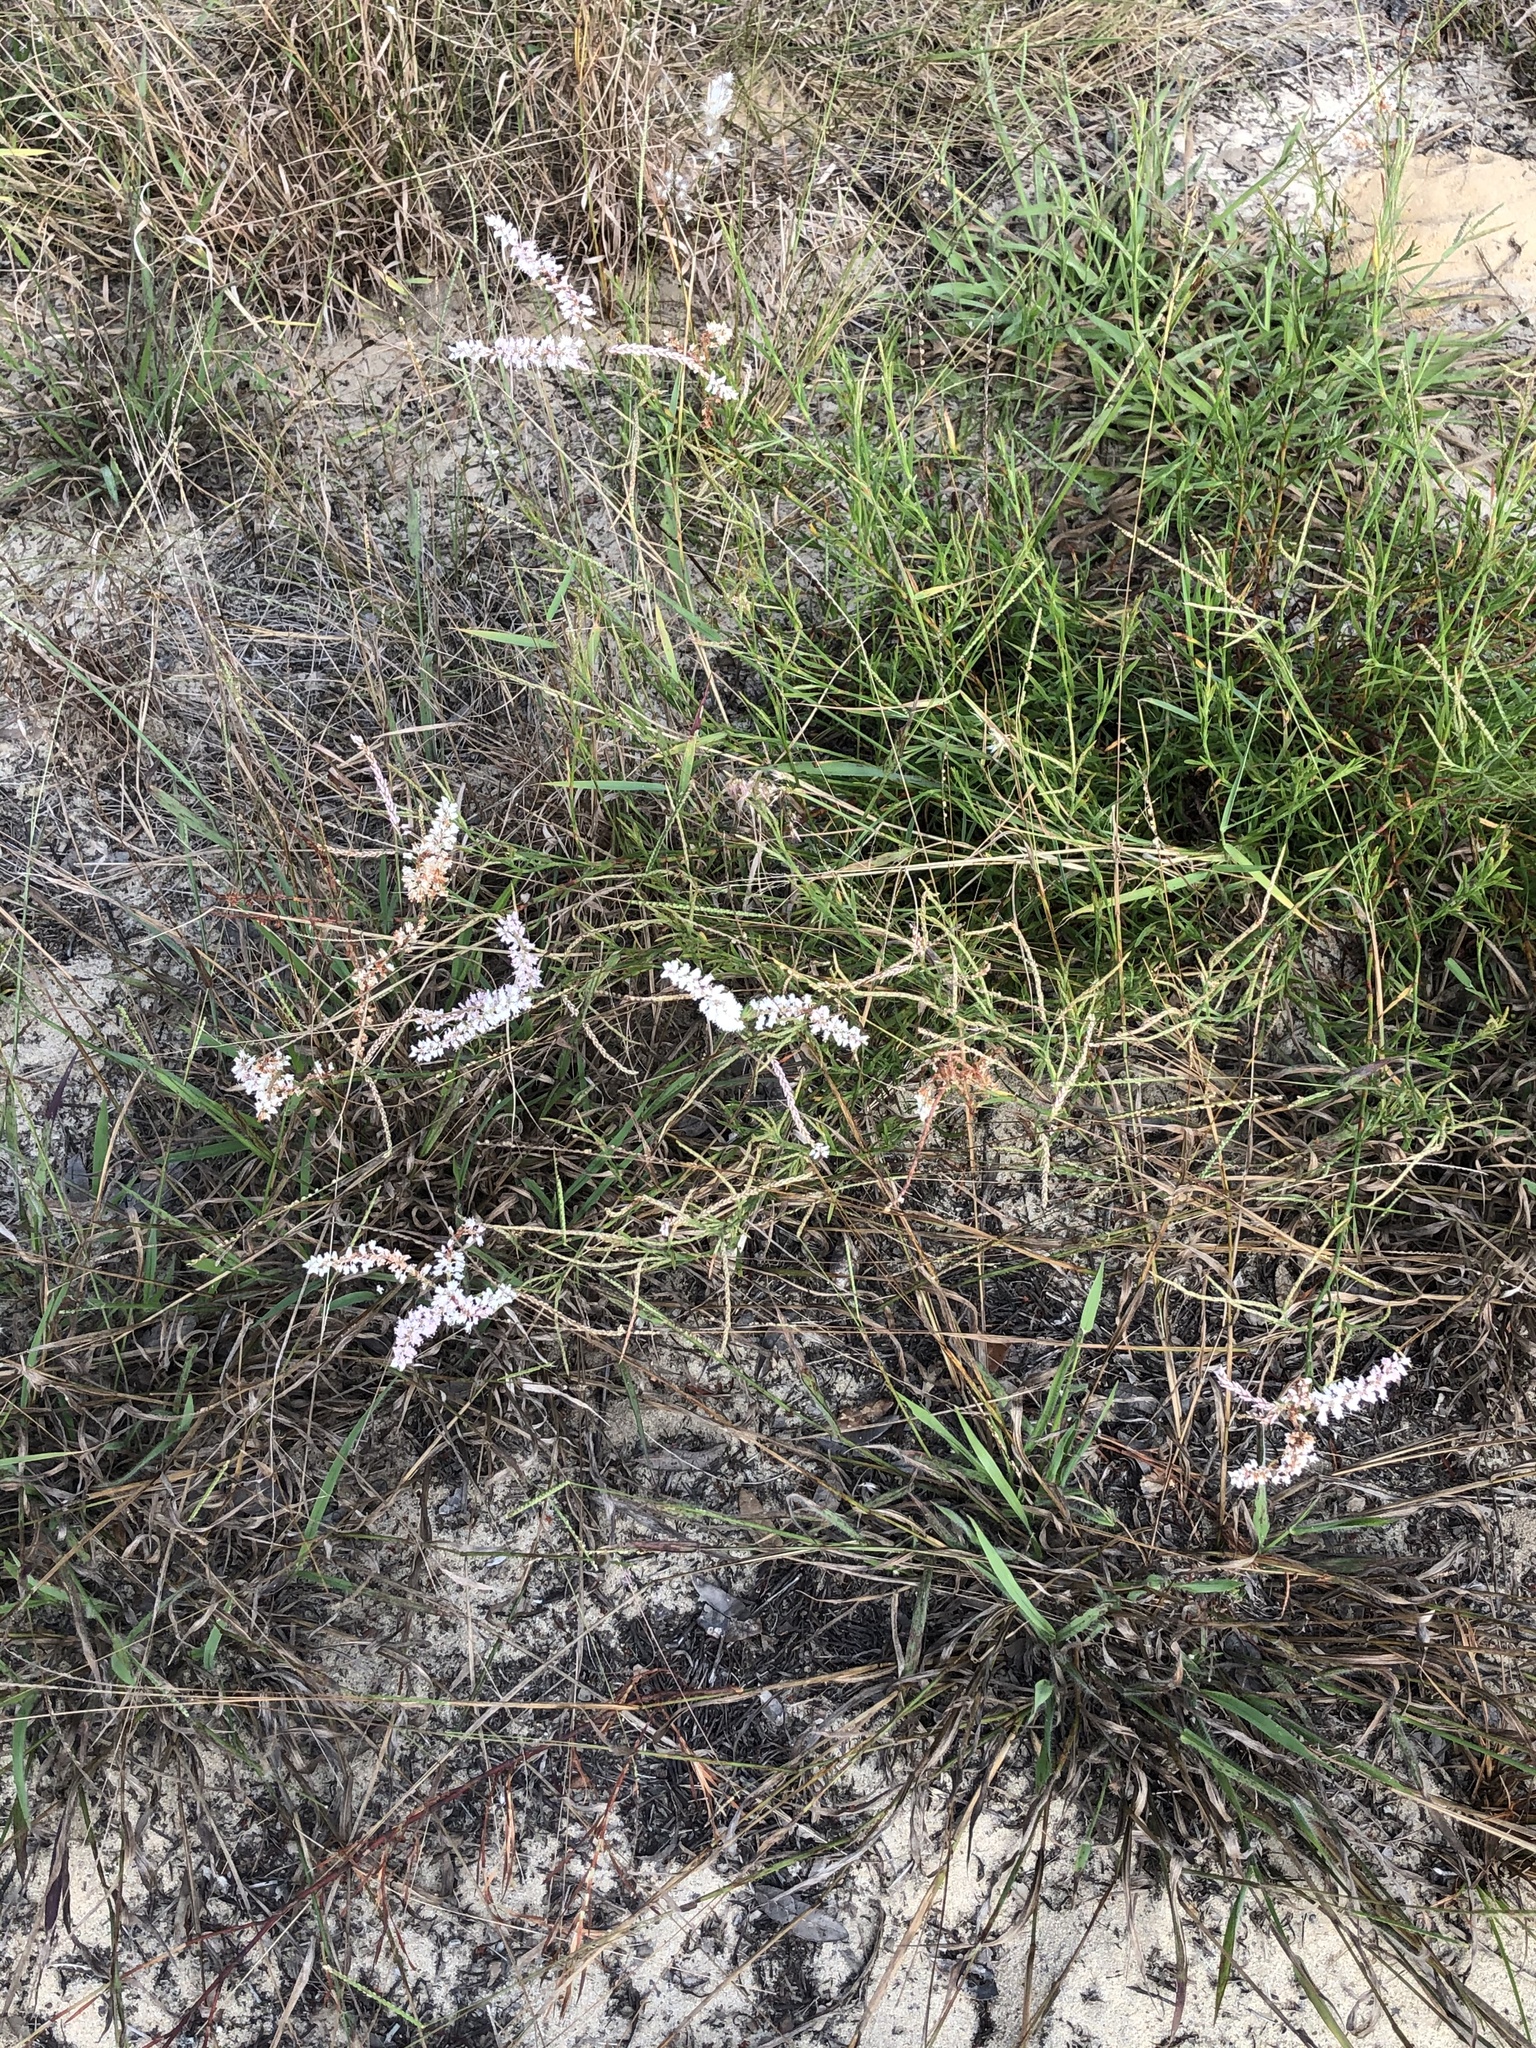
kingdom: Plantae
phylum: Tracheophyta
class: Magnoliopsida
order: Caryophyllales
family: Polygonaceae
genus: Polygonella
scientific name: Polygonella robusta
